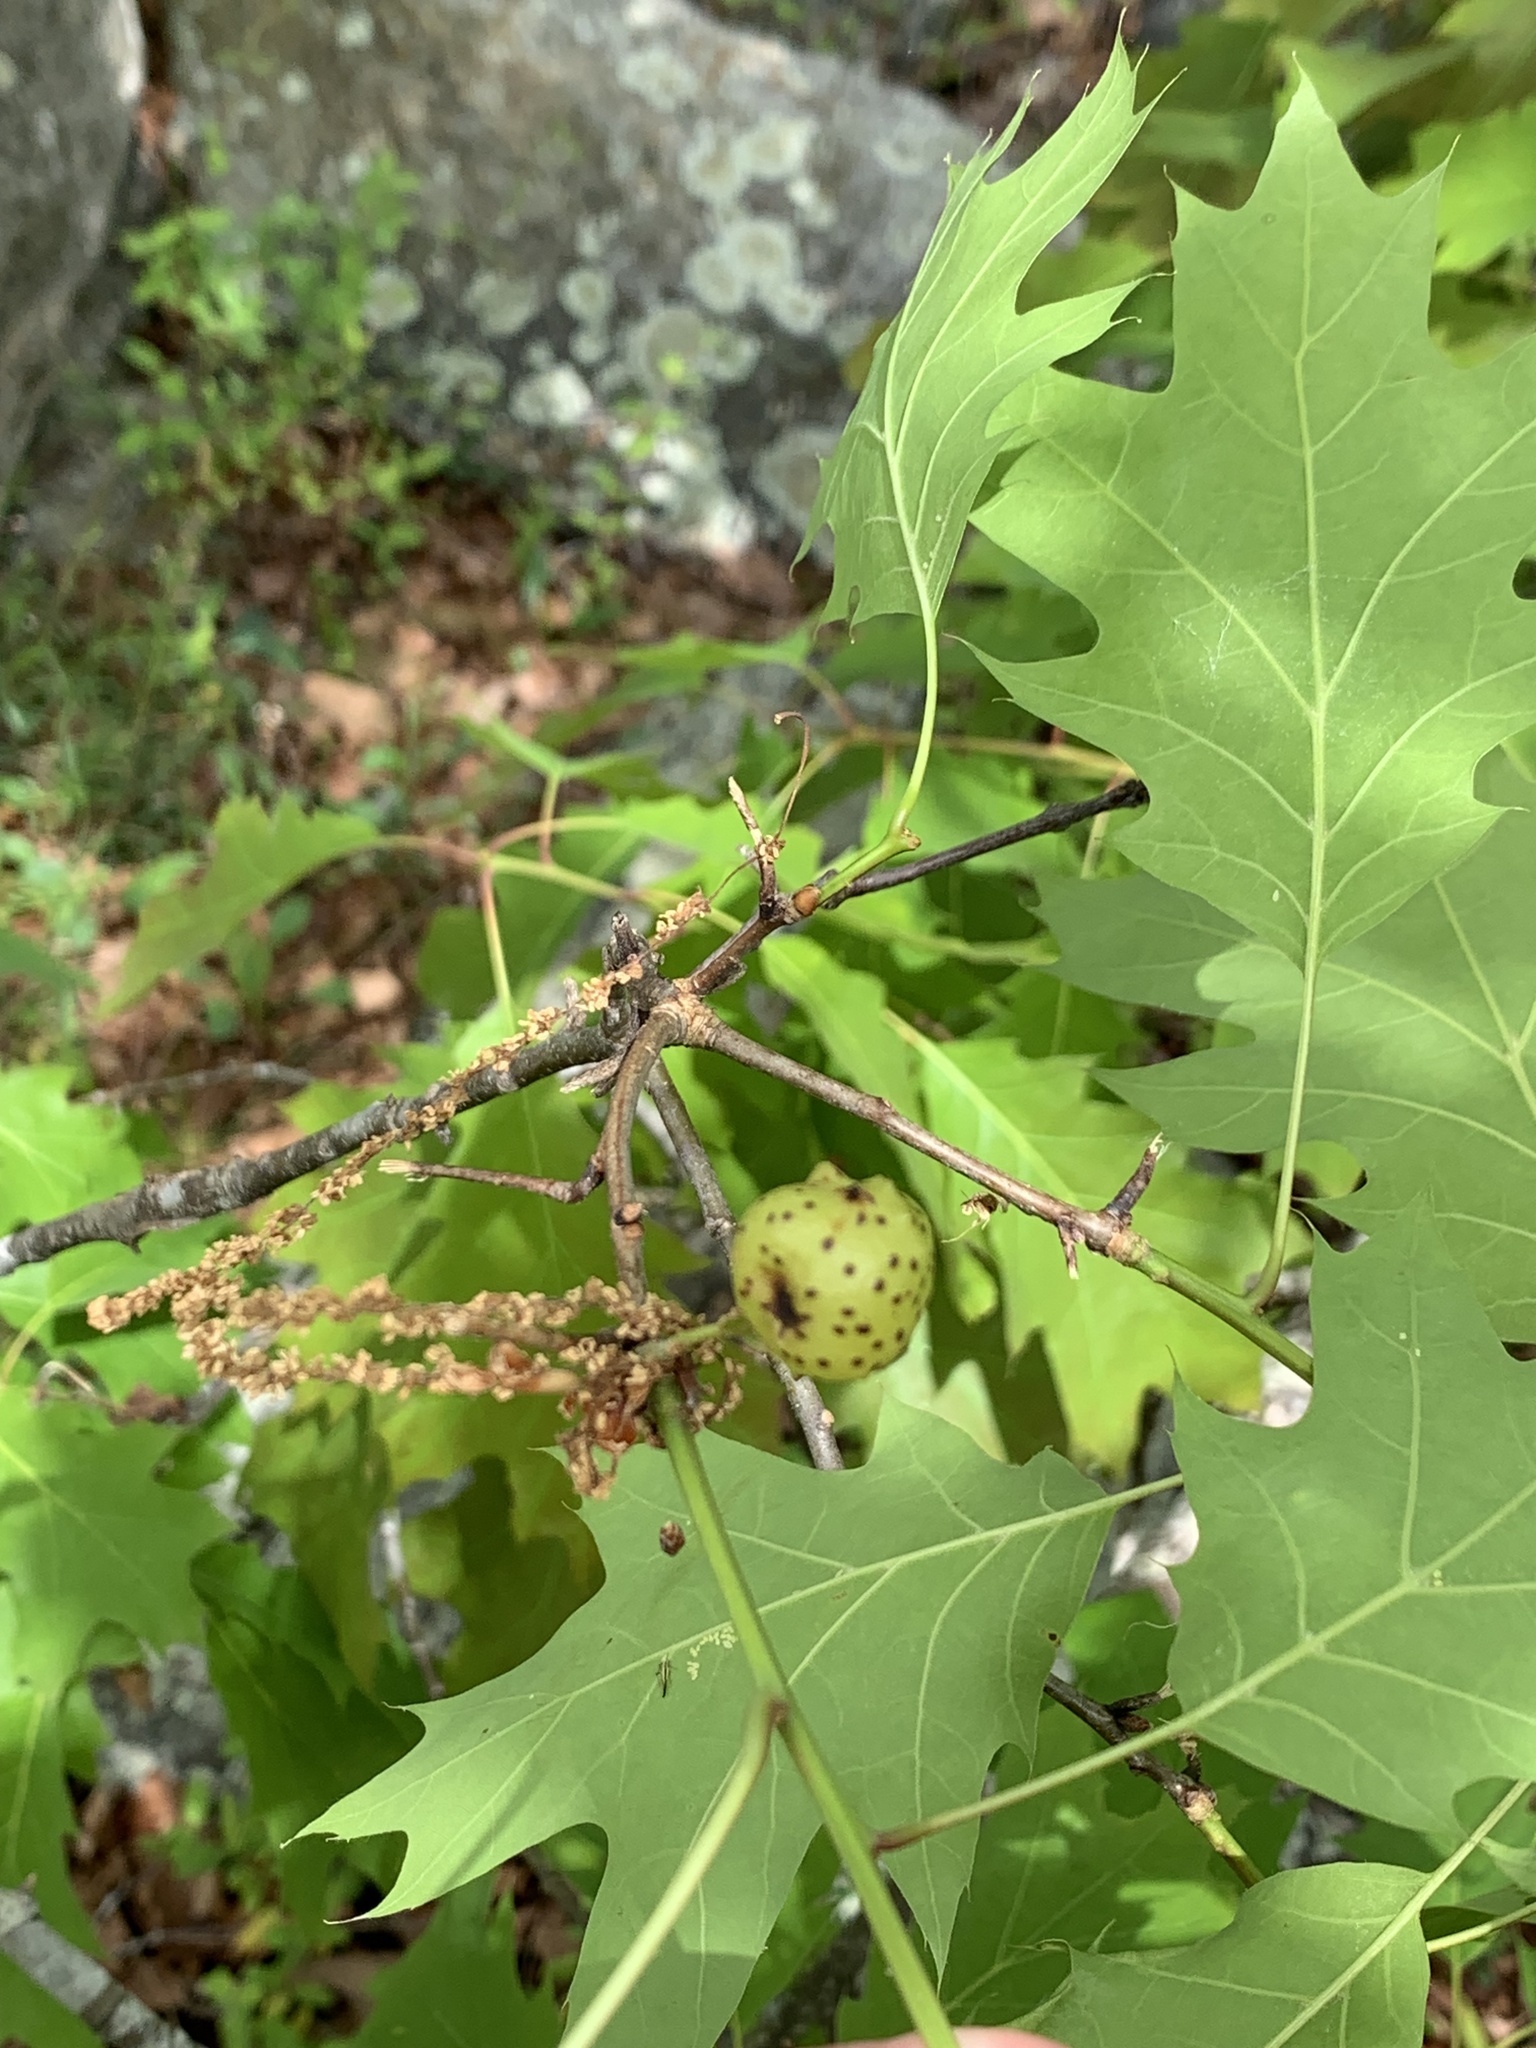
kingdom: Animalia
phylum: Arthropoda
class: Insecta
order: Hymenoptera
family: Cynipidae
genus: Amphibolips
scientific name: Amphibolips
